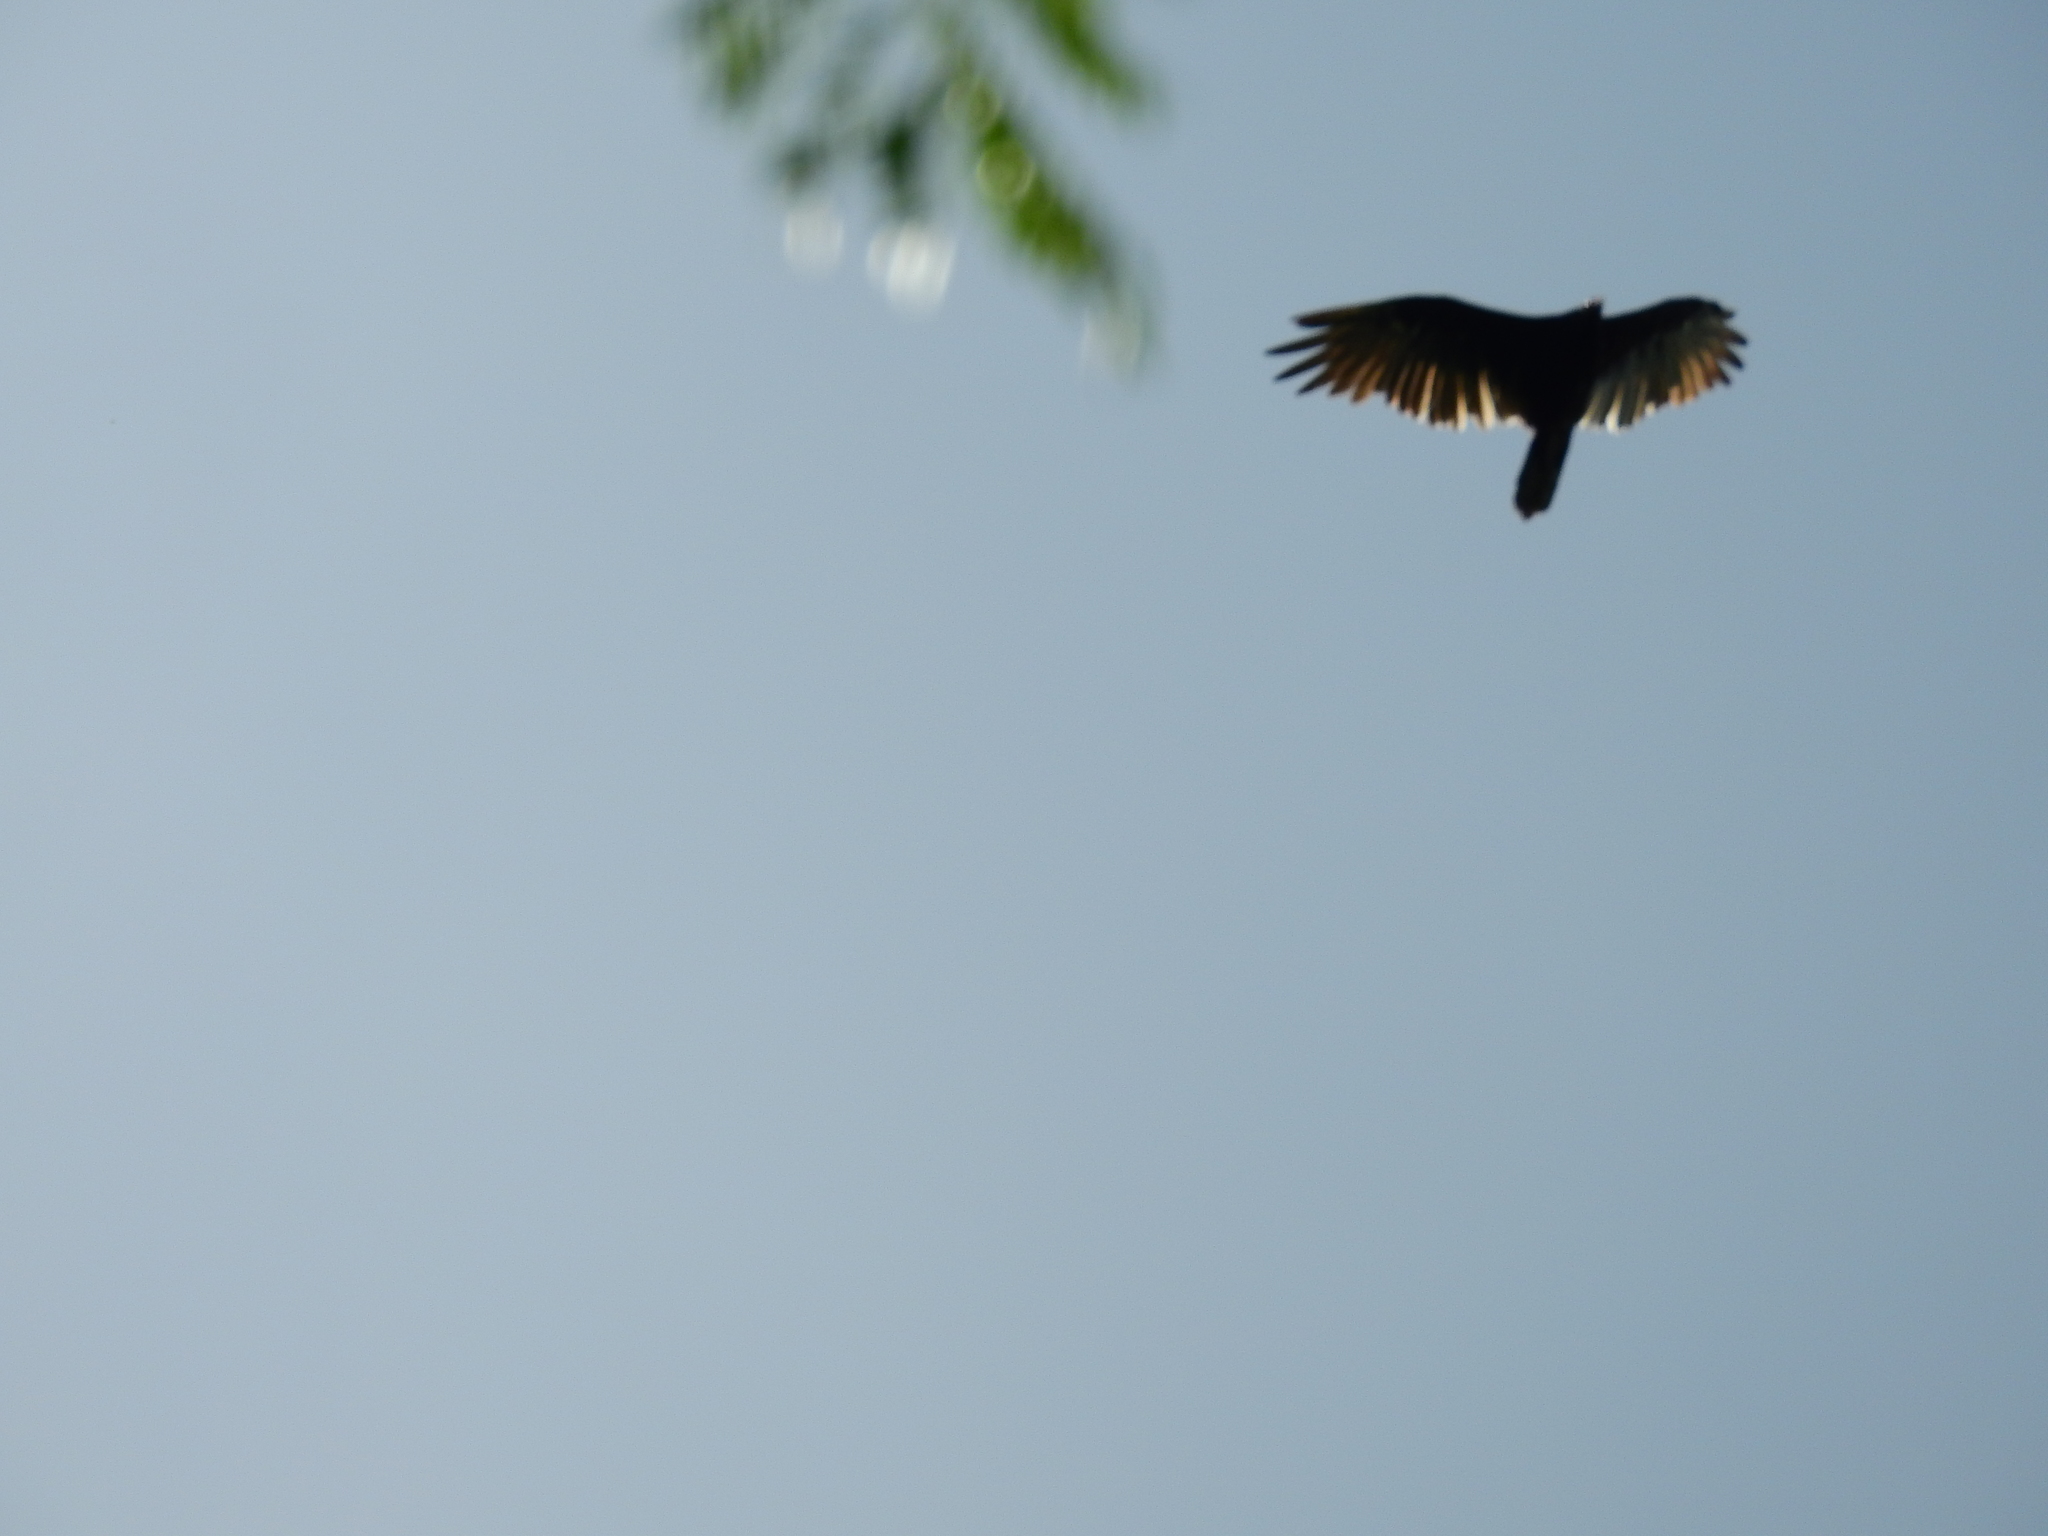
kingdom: Animalia
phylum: Chordata
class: Aves
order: Accipitriformes
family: Cathartidae
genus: Cathartes
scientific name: Cathartes aura
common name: Turkey vulture
